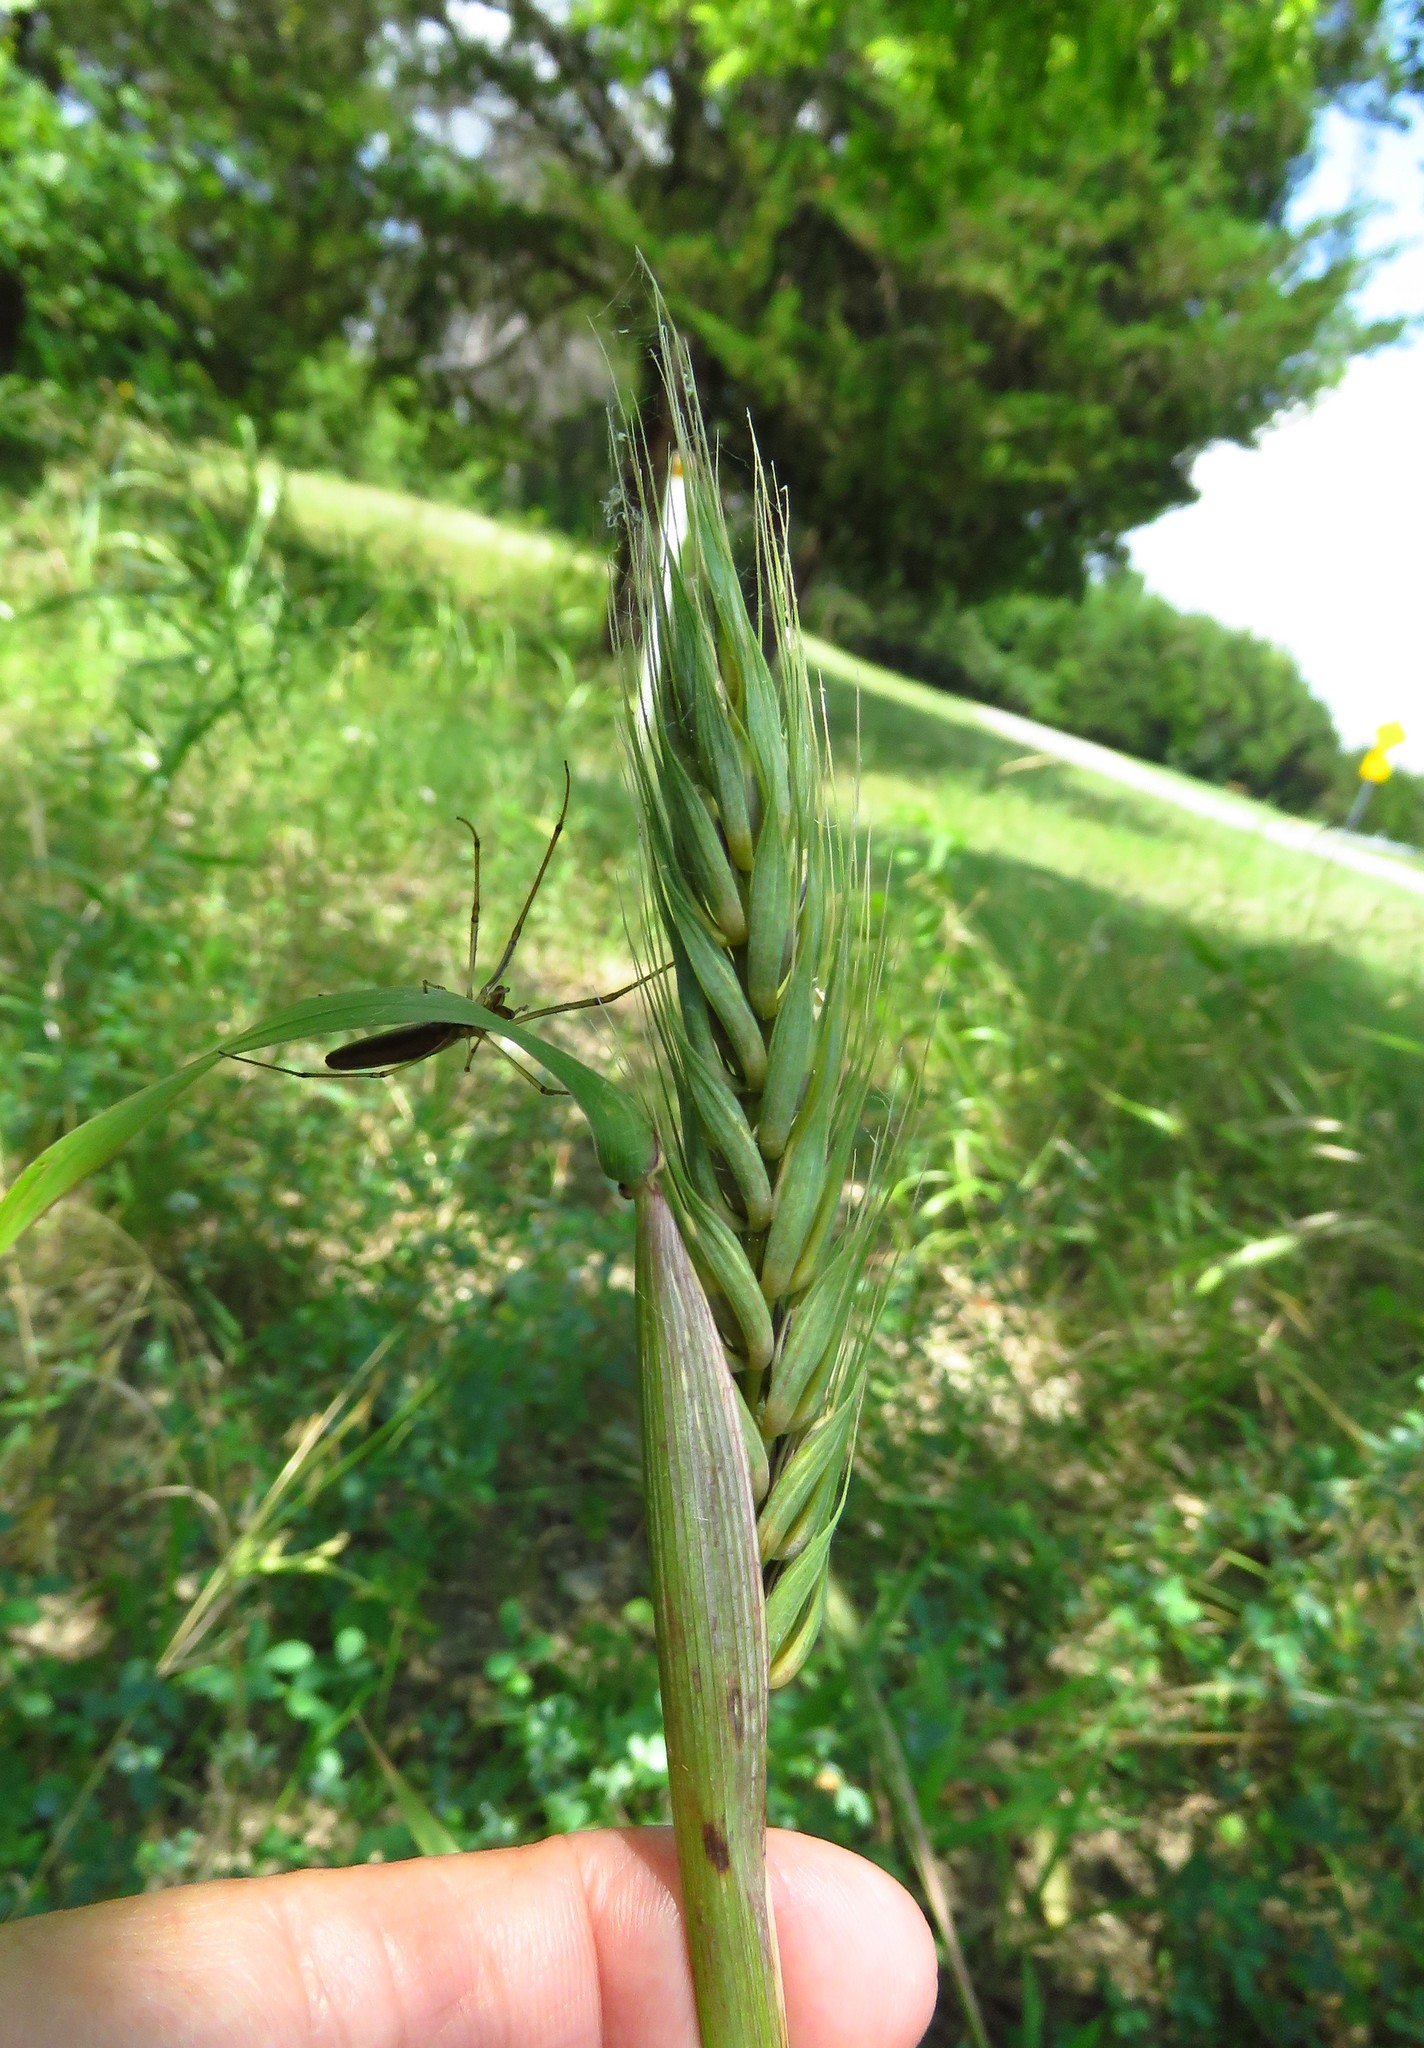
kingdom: Plantae
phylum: Tracheophyta
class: Liliopsida
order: Poales
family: Poaceae
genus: Elymus
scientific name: Elymus virginicus
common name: Common eastern wildrye
